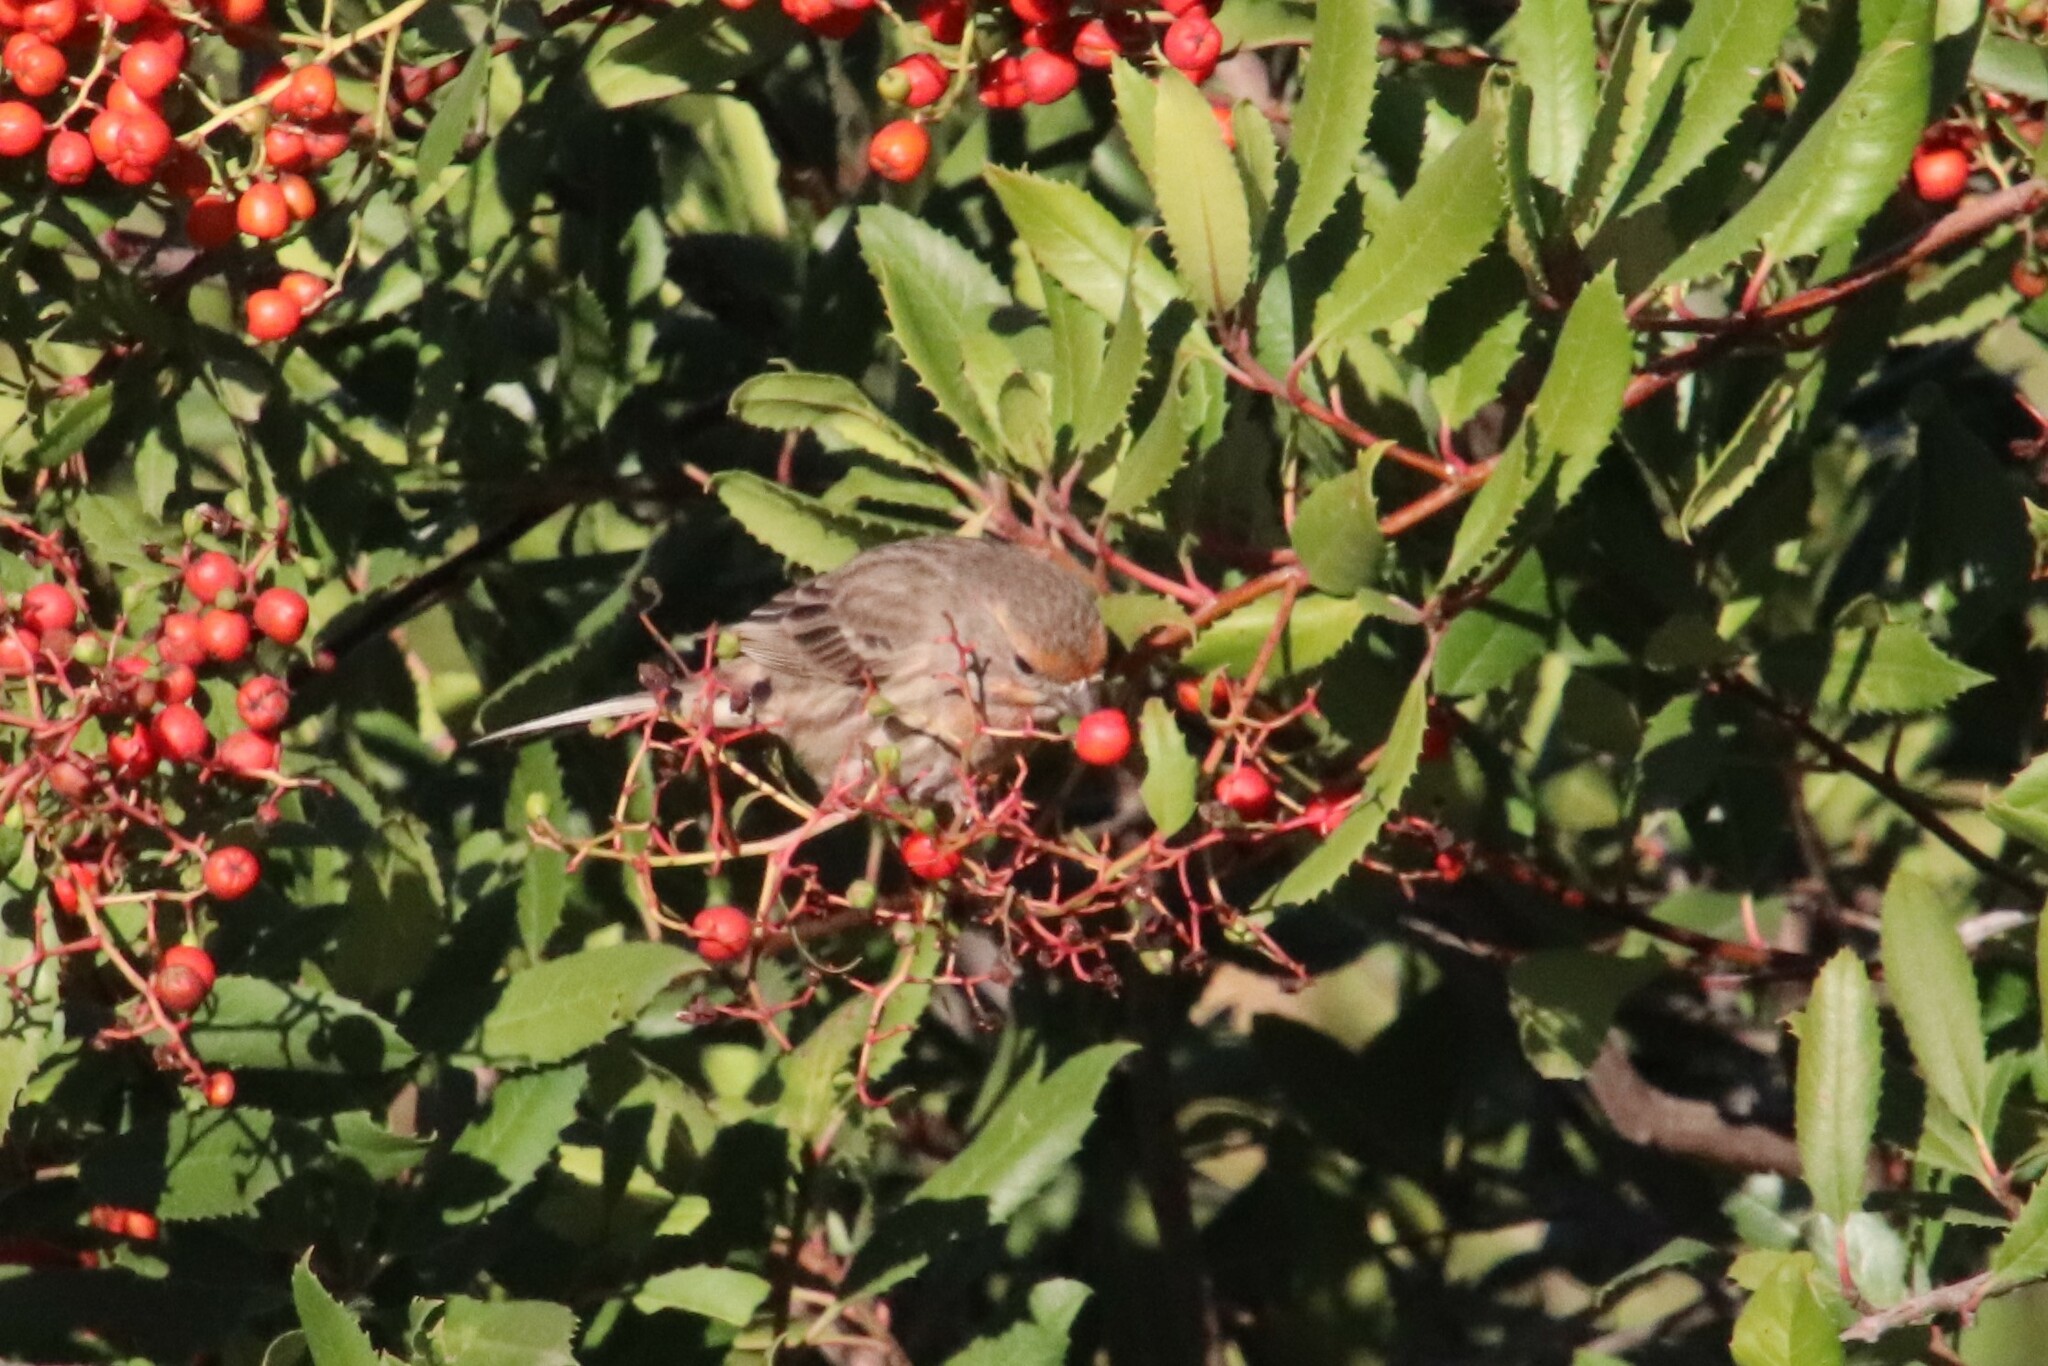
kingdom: Animalia
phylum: Chordata
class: Aves
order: Passeriformes
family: Fringillidae
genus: Haemorhous
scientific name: Haemorhous mexicanus
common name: House finch
